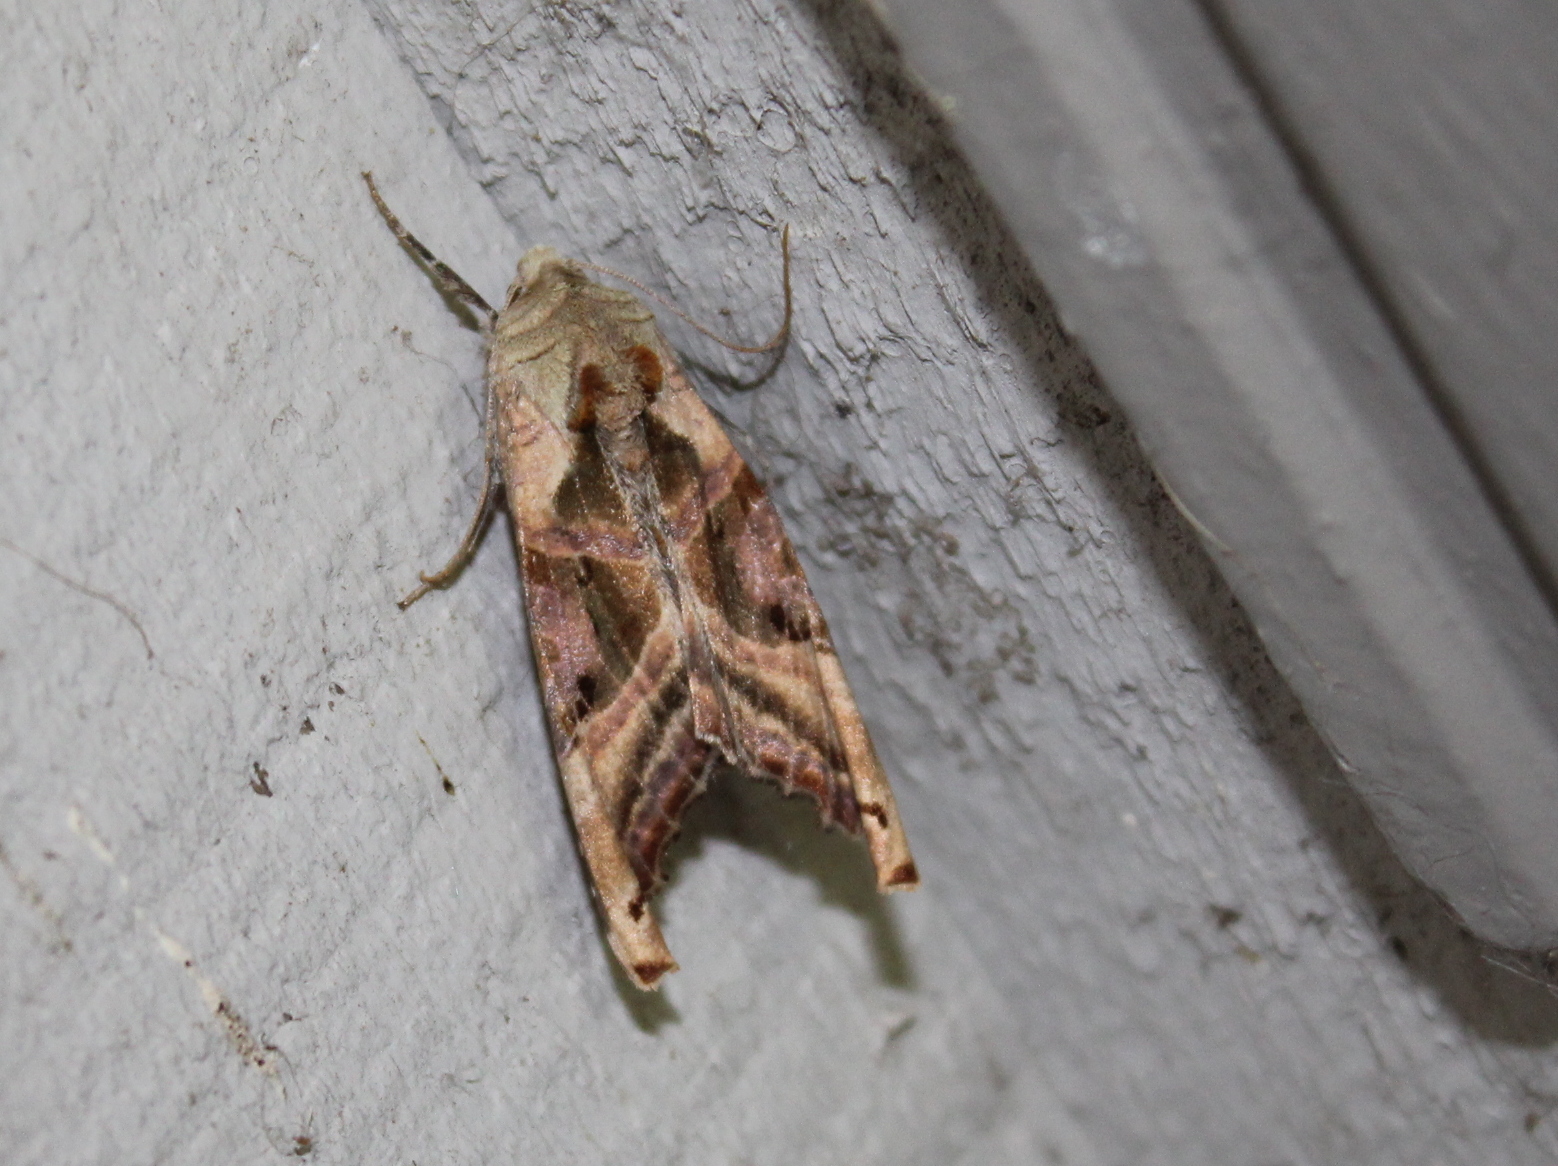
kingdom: Animalia
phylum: Arthropoda
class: Insecta
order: Lepidoptera
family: Noctuidae
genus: Phlogophora
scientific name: Phlogophora iris
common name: Olive angle shades
